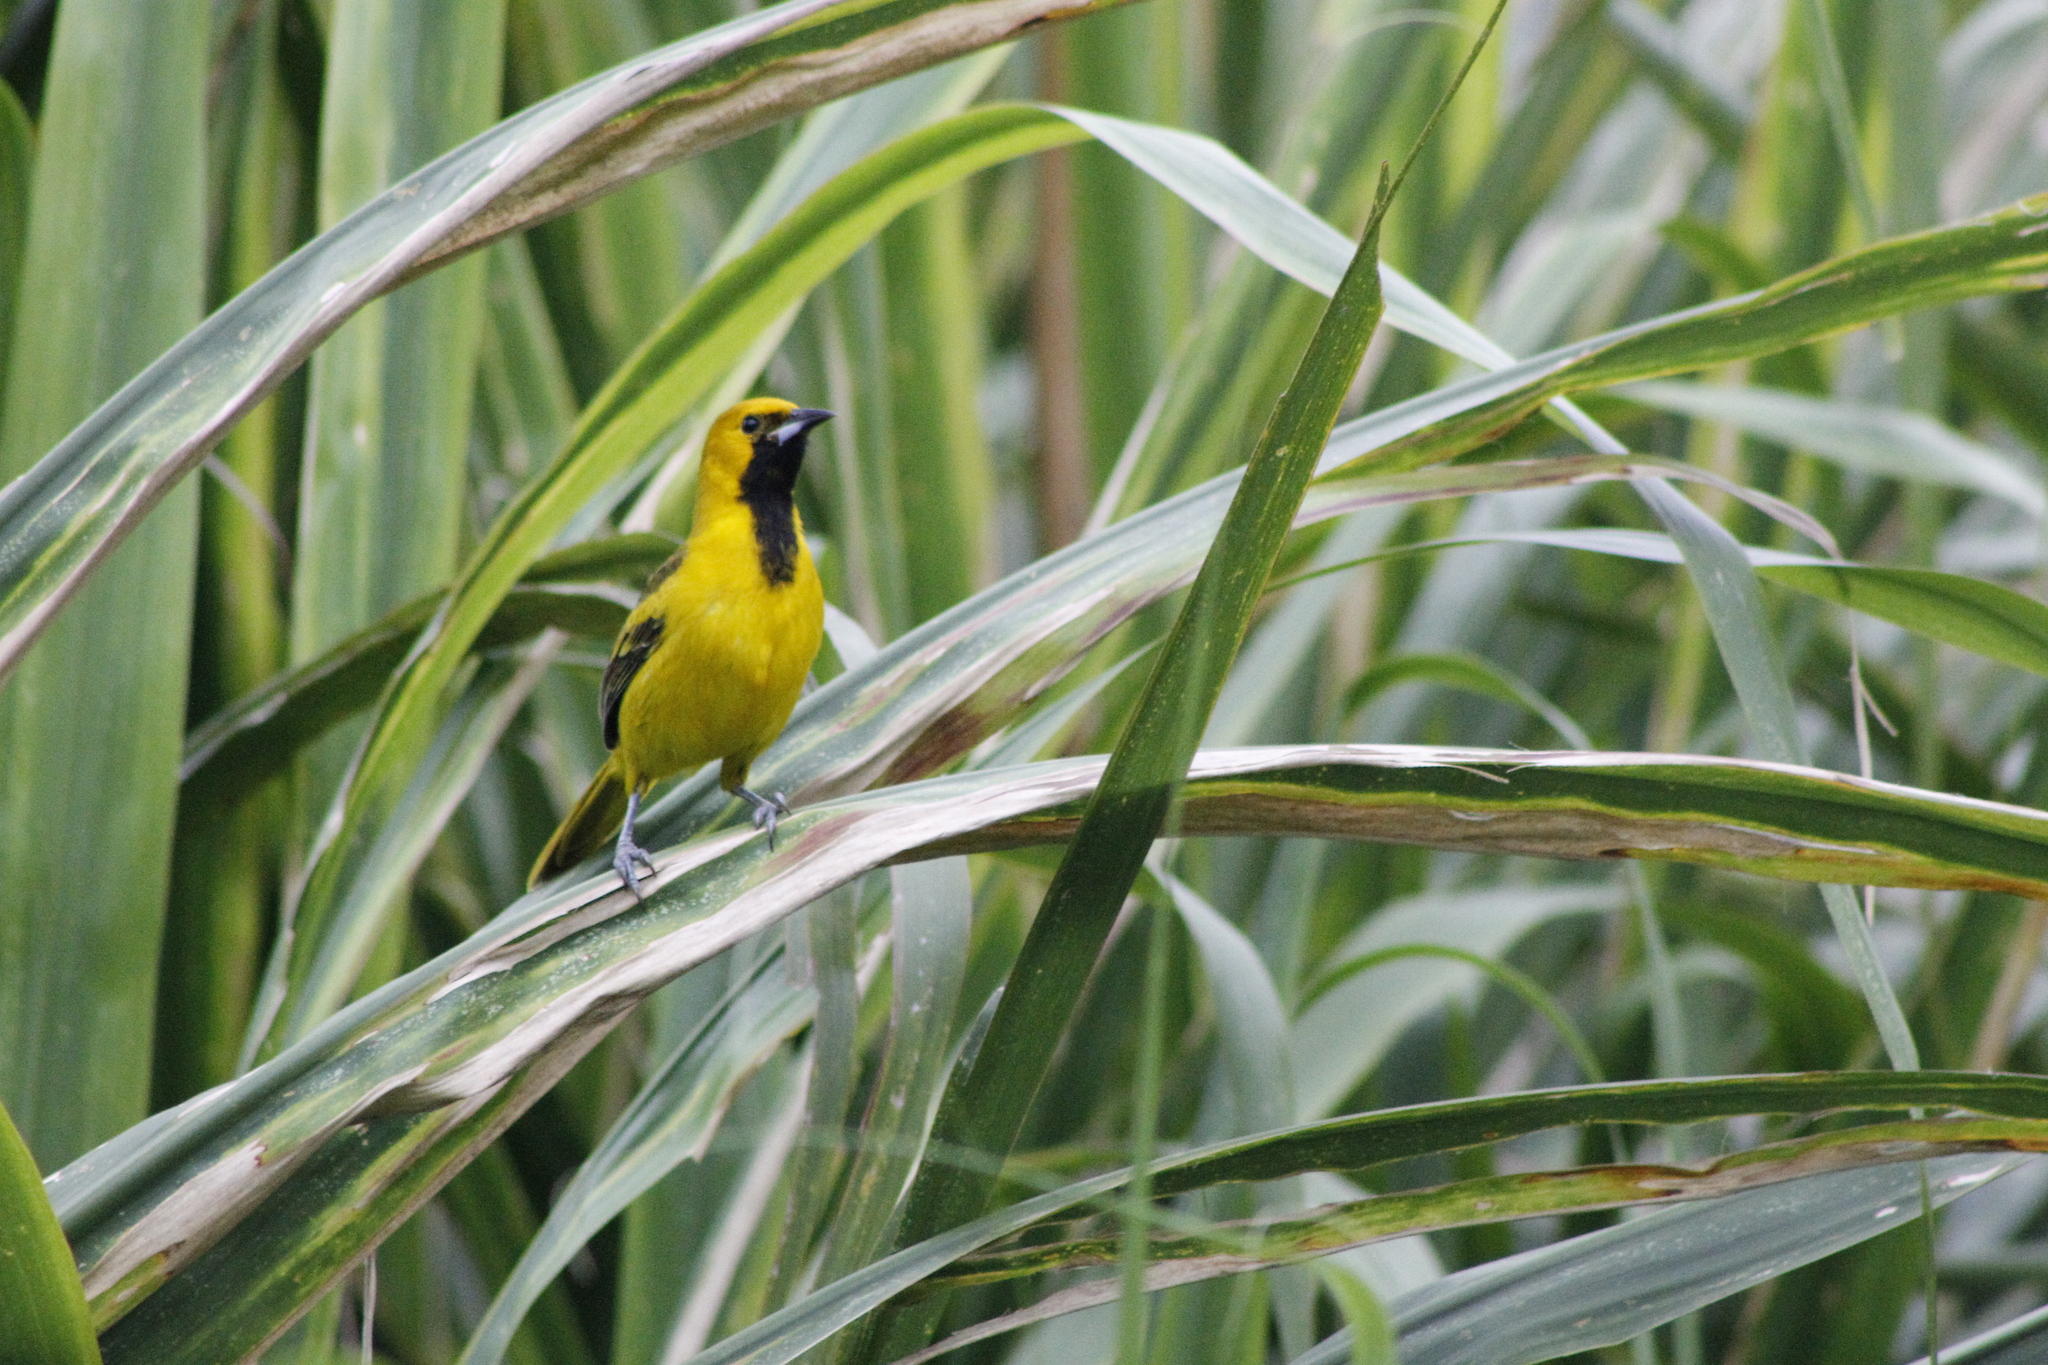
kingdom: Animalia
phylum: Chordata
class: Aves
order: Passeriformes
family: Icteridae
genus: Icterus
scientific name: Icterus nigrogularis
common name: Yellow oriole
